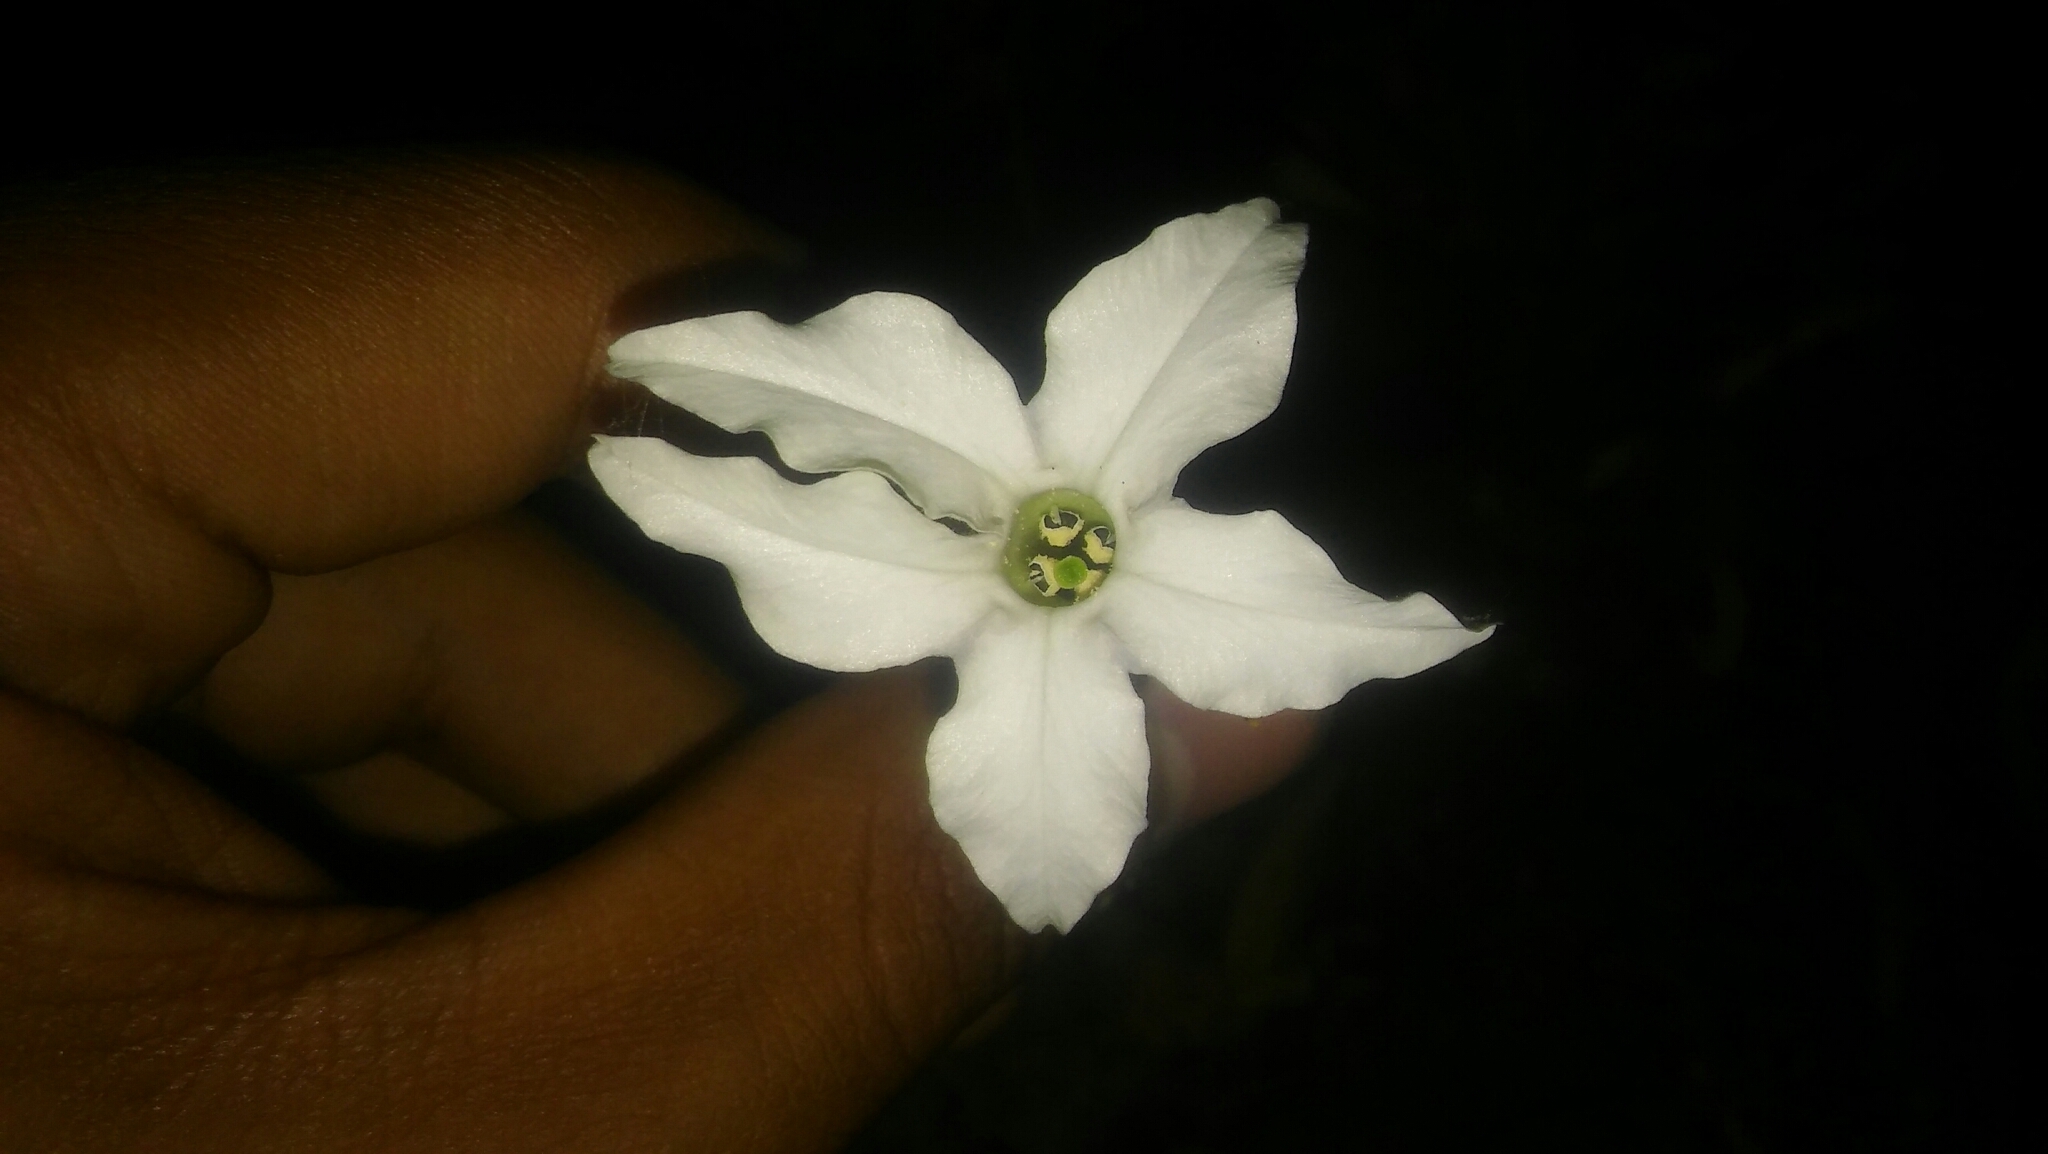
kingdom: Plantae
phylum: Tracheophyta
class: Magnoliopsida
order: Solanales
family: Solanaceae
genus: Nicotiana
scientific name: Nicotiana longiflora
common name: Long-flowered tobacco
